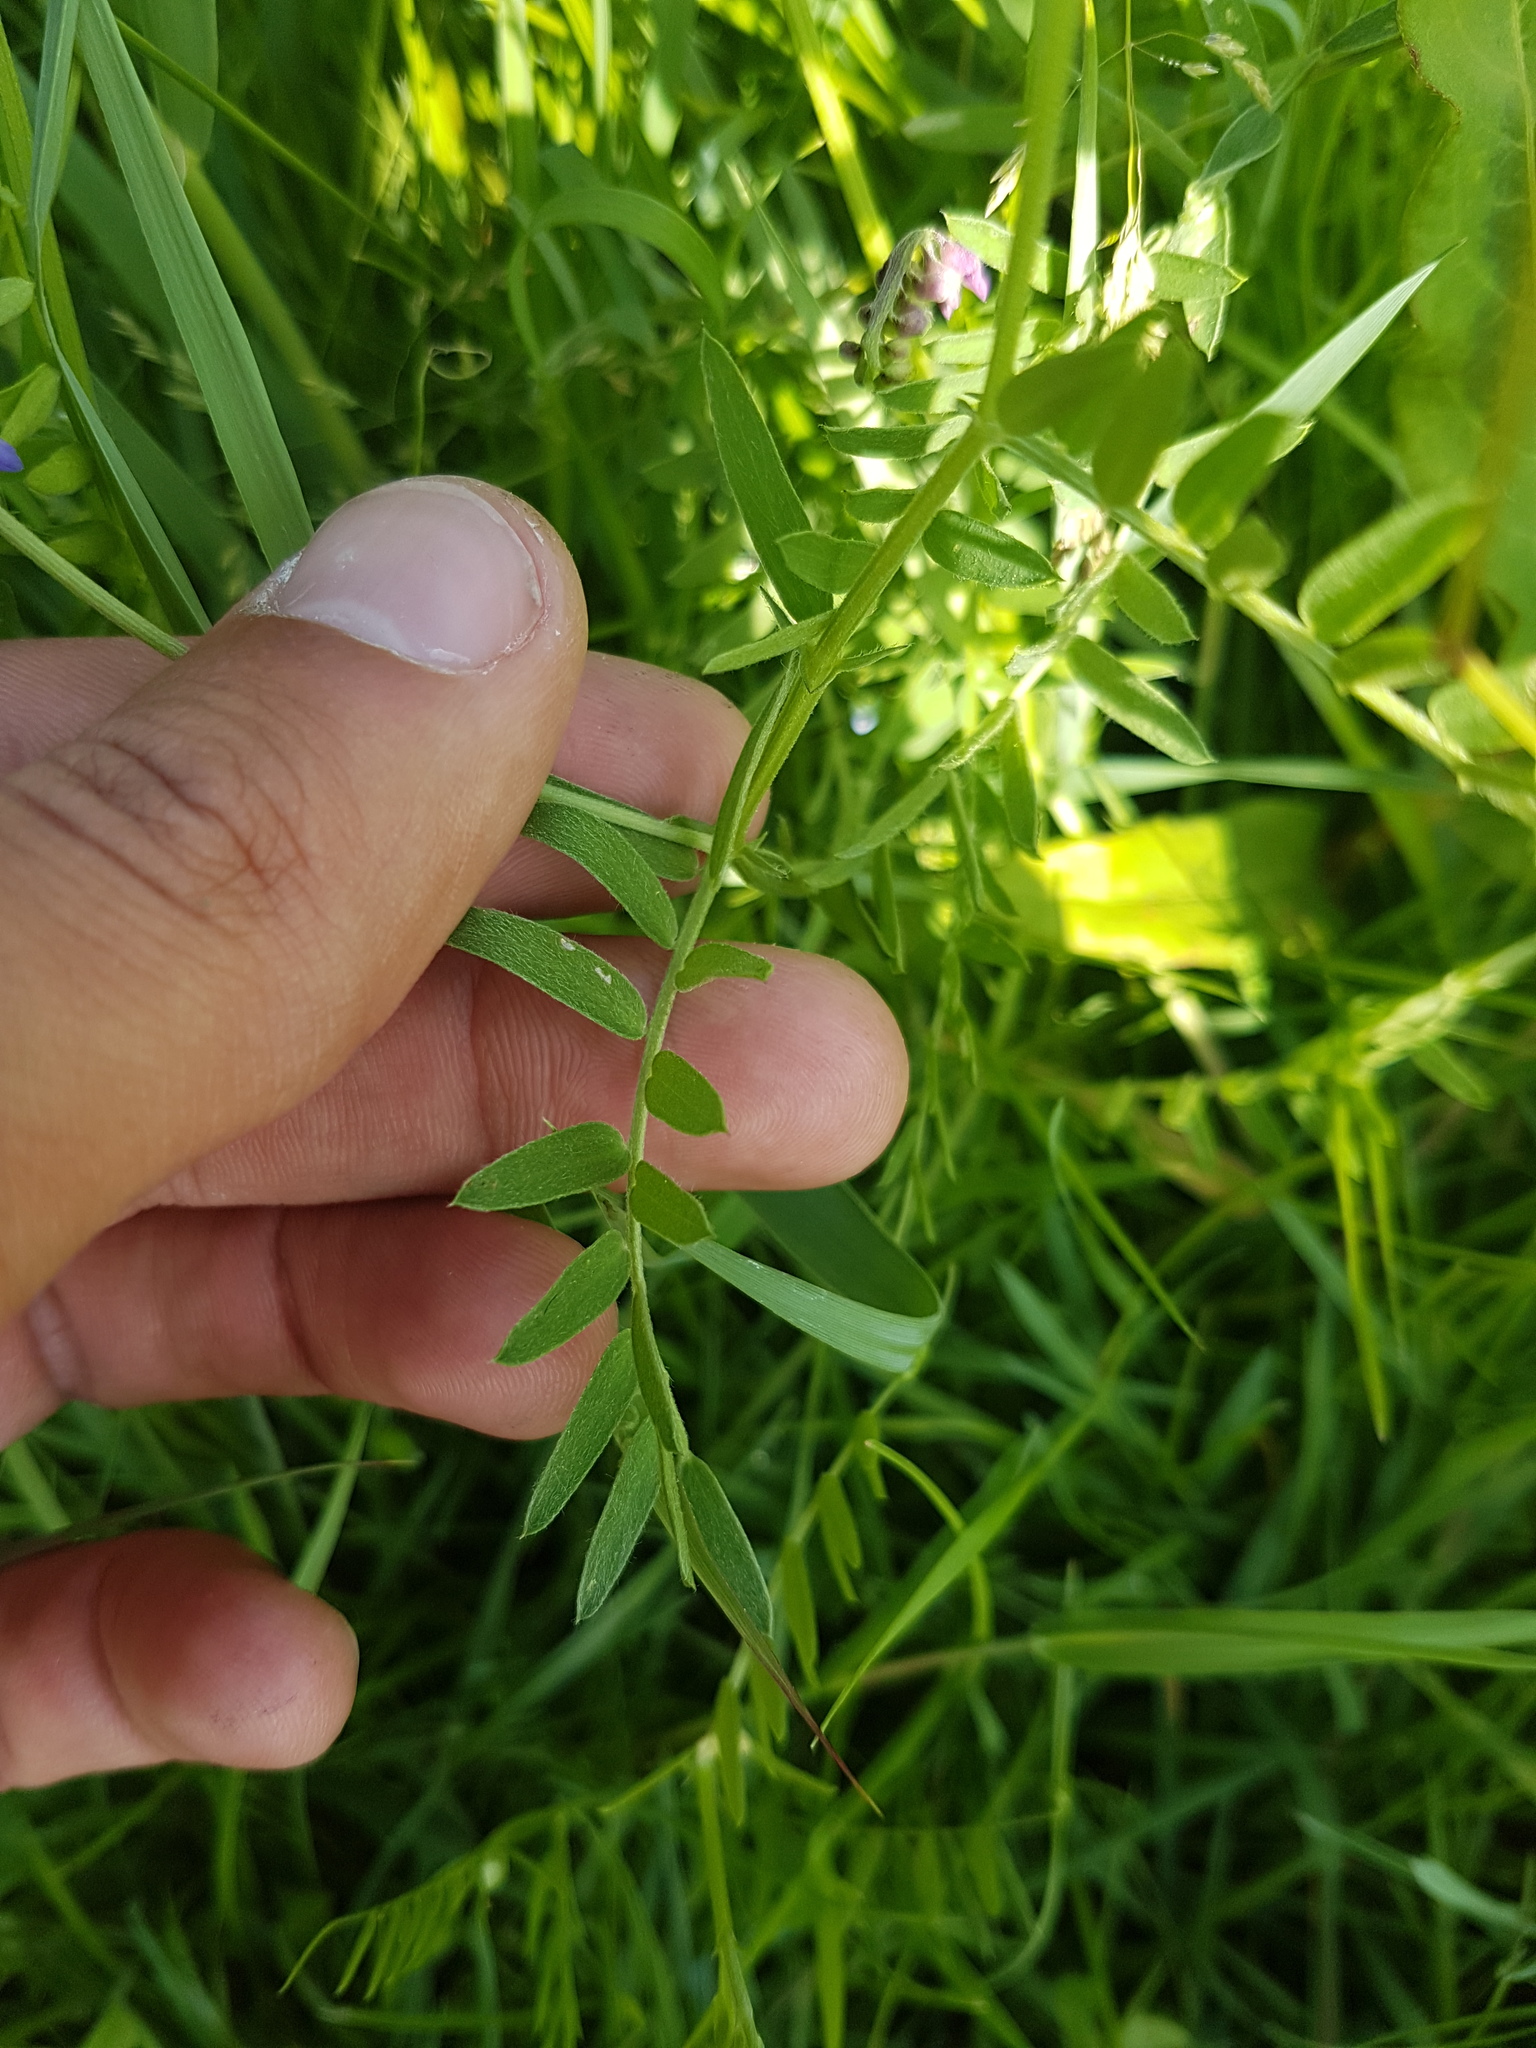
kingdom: Plantae
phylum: Tracheophyta
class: Magnoliopsida
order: Fabales
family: Fabaceae
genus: Vicia
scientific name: Vicia cracca
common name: Bird vetch
